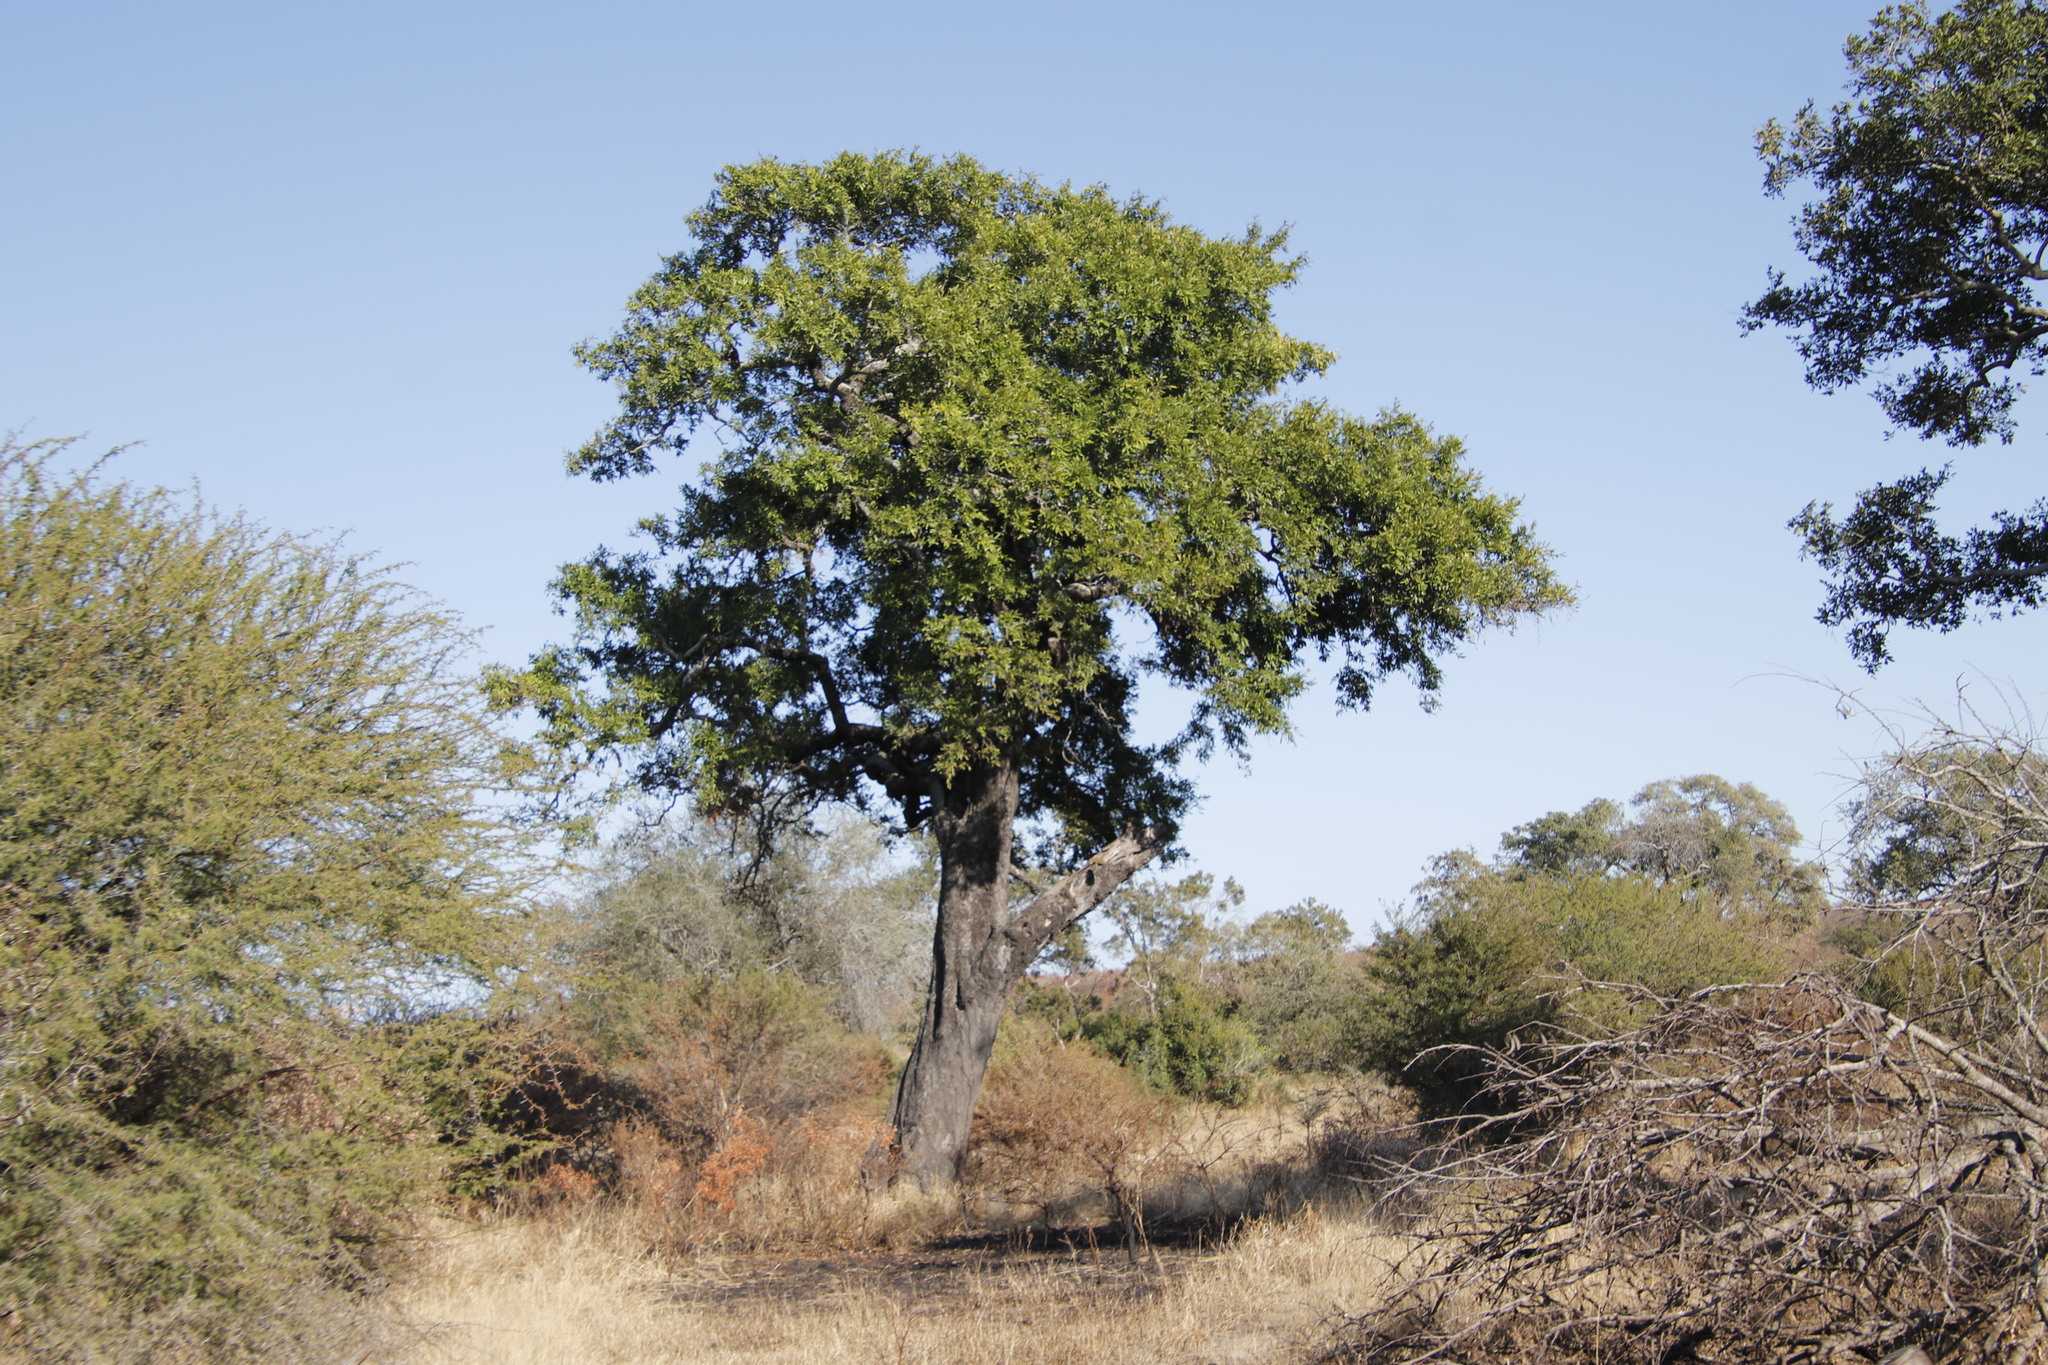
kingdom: Plantae
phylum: Tracheophyta
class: Magnoliopsida
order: Ericales
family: Ebenaceae
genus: Diospyros
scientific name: Diospyros mespiliformis
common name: Ebony diospyros
